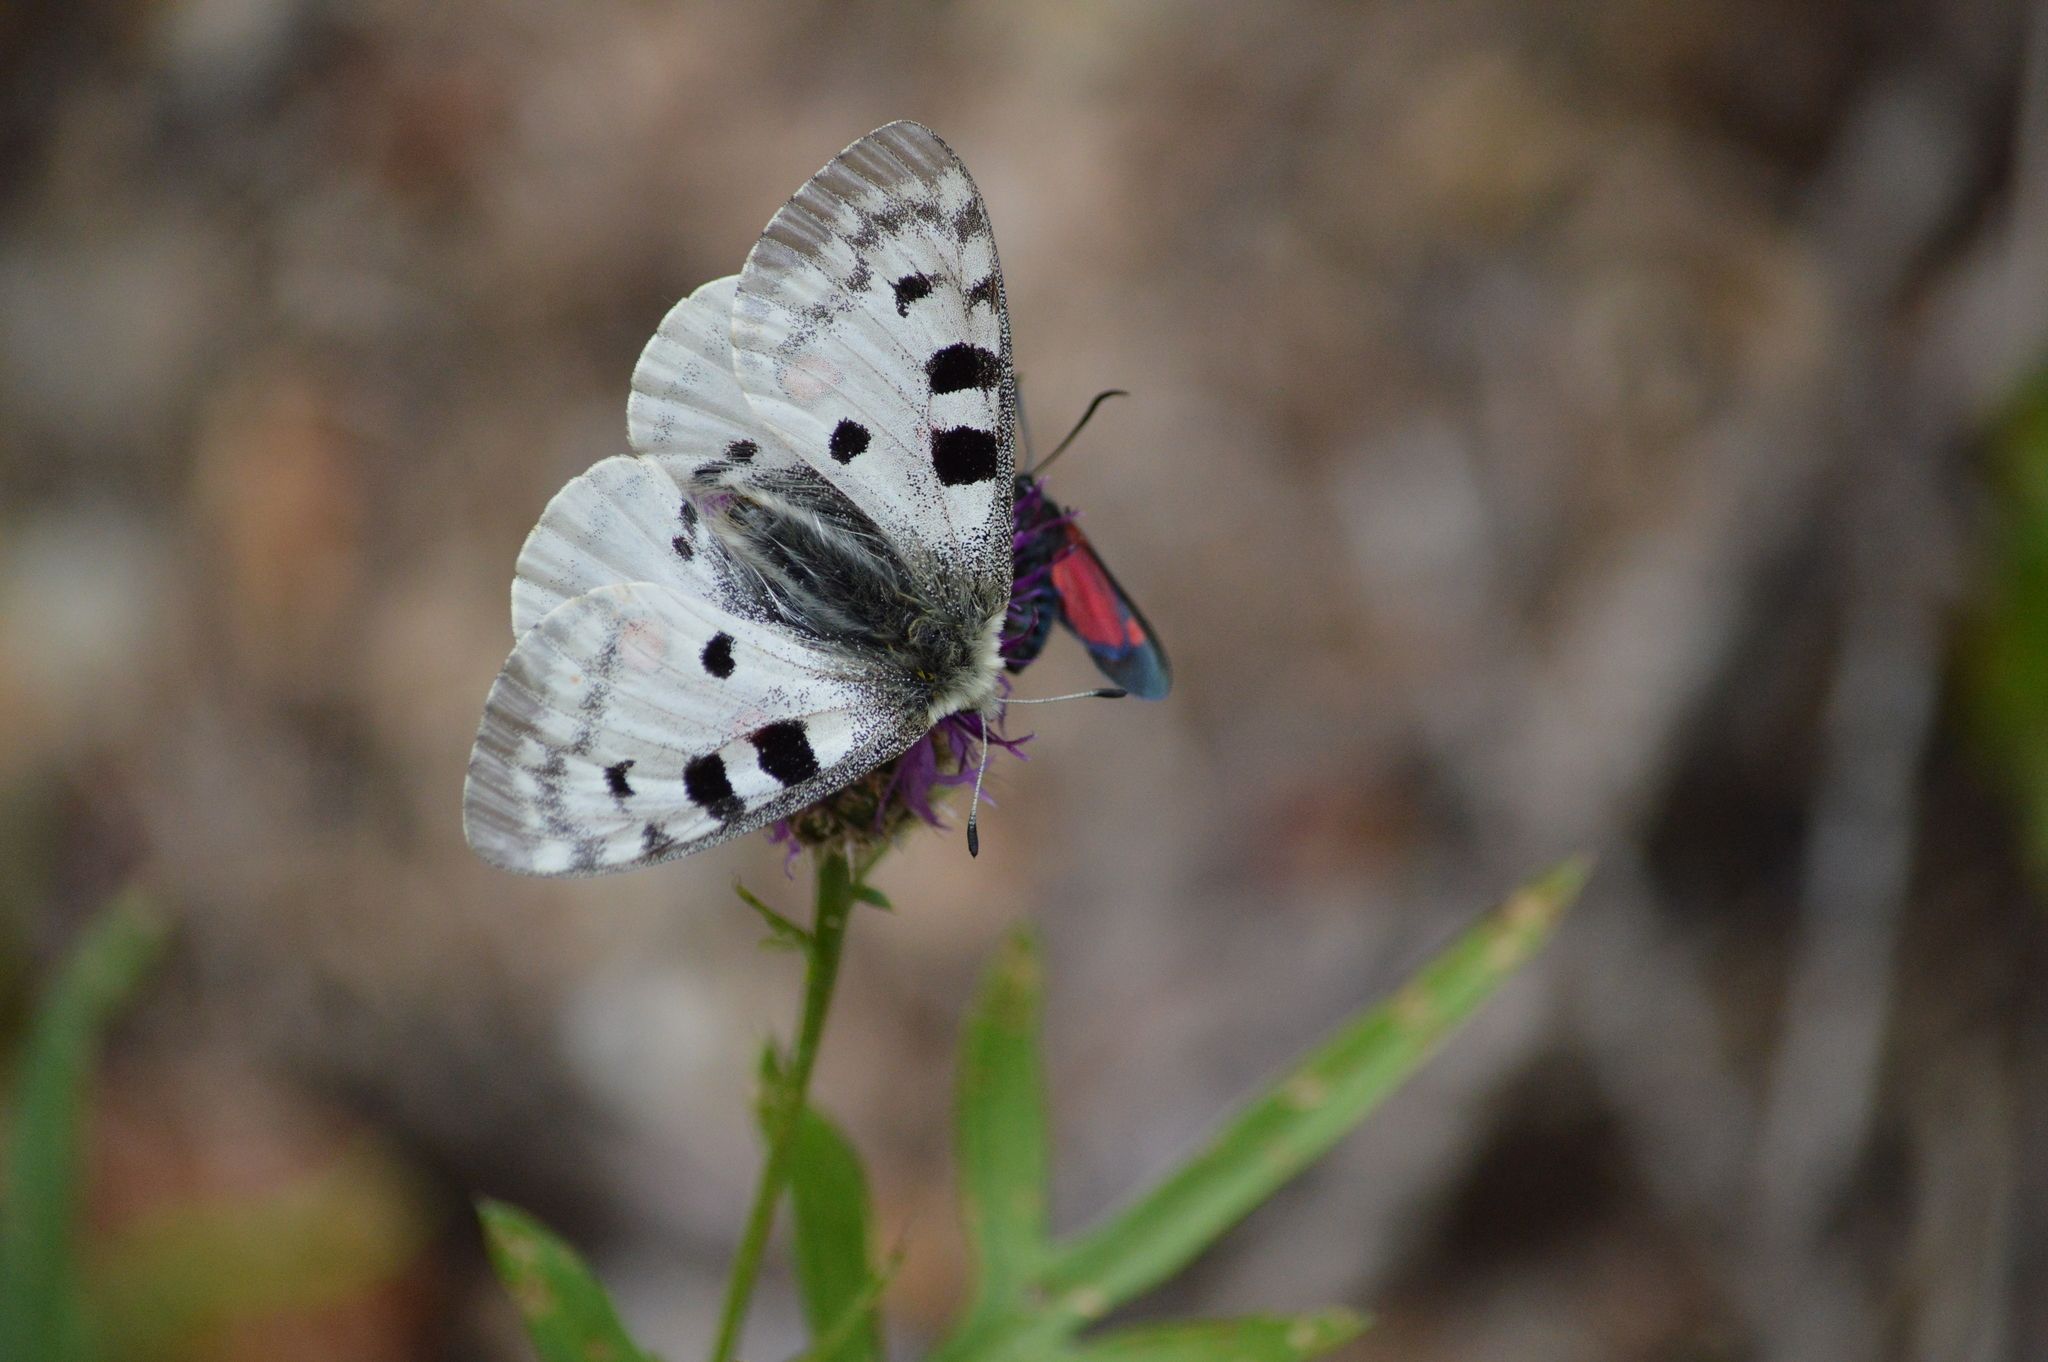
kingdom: Animalia
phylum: Arthropoda
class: Insecta
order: Lepidoptera
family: Papilionidae
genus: Parnassius
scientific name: Parnassius apollo
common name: Apollo
